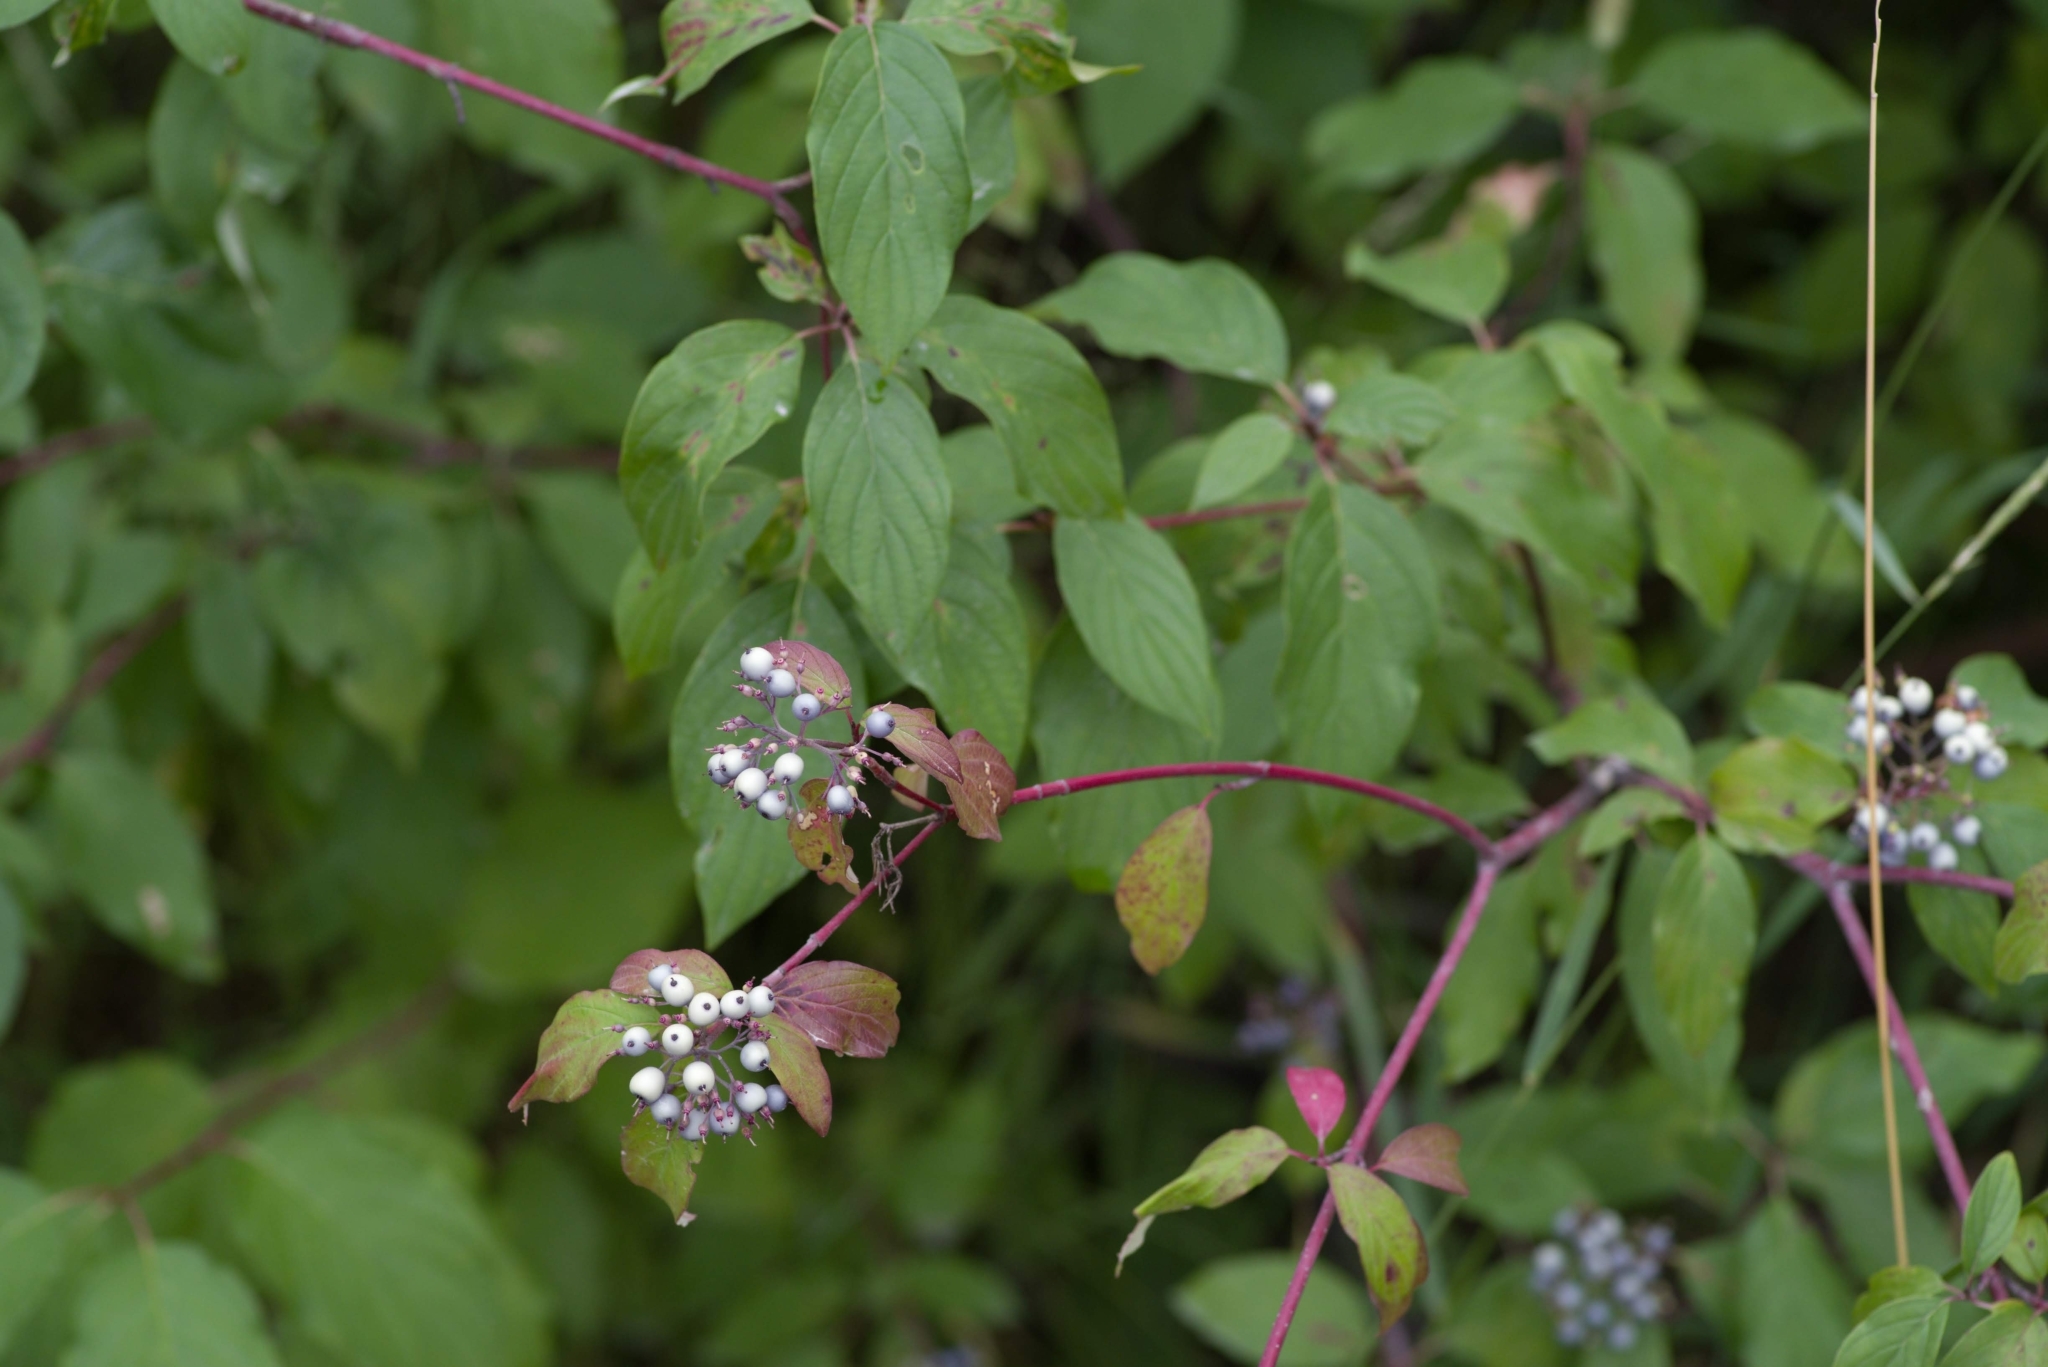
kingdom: Plantae
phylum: Tracheophyta
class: Magnoliopsida
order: Cornales
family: Cornaceae
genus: Cornus
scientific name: Cornus sericea
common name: Red-osier dogwood
